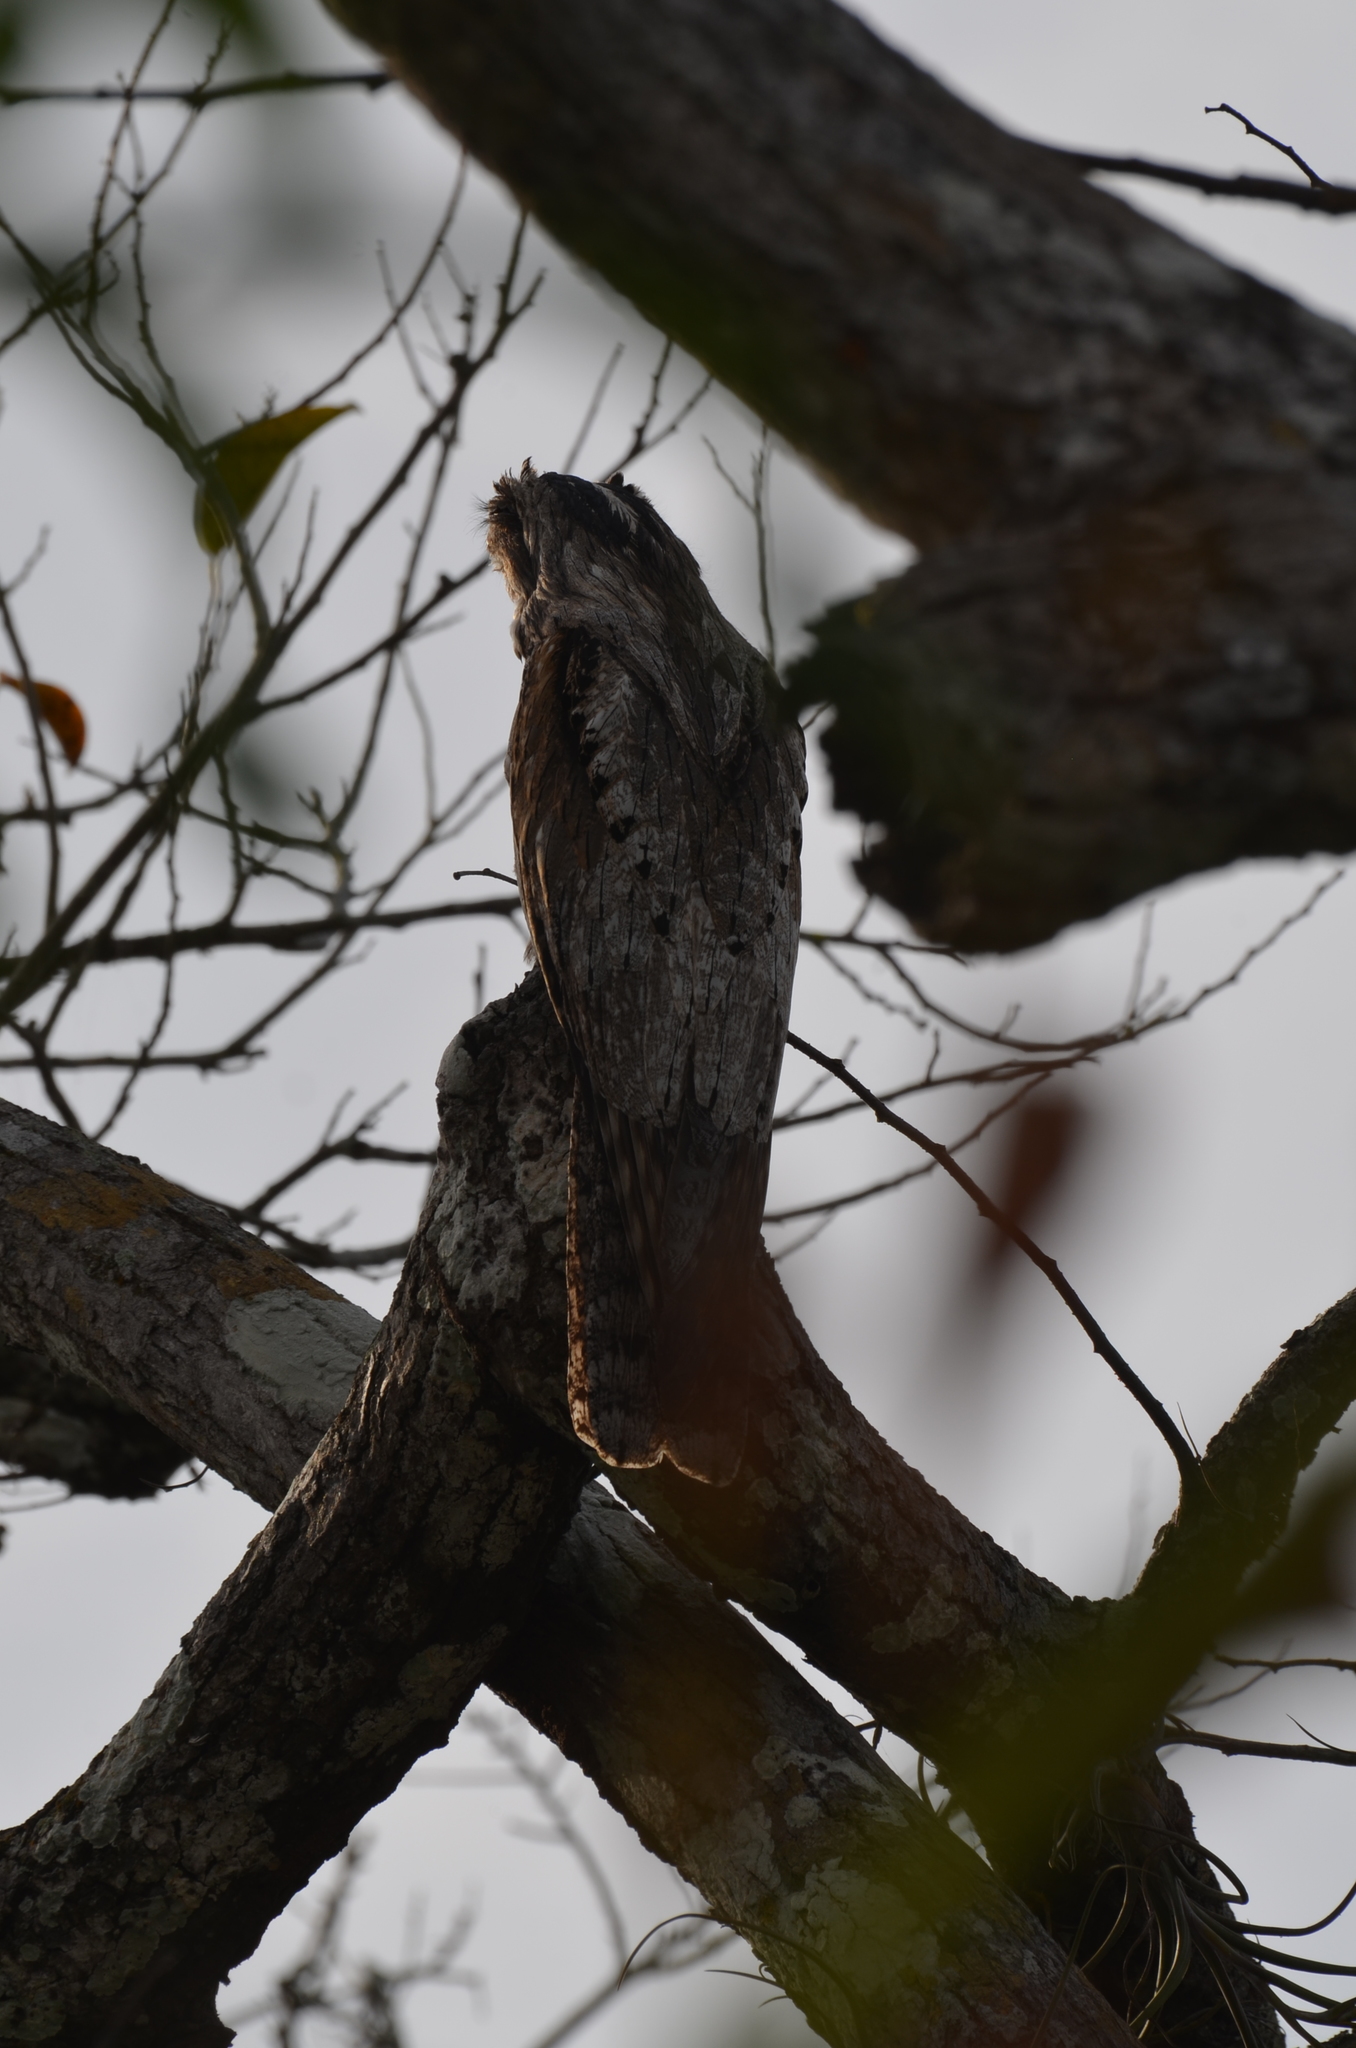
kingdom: Animalia
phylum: Chordata
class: Aves
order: Nyctibiiformes
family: Nyctibiidae
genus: Nyctibius
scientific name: Nyctibius jamaicensis
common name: Northern potoo
